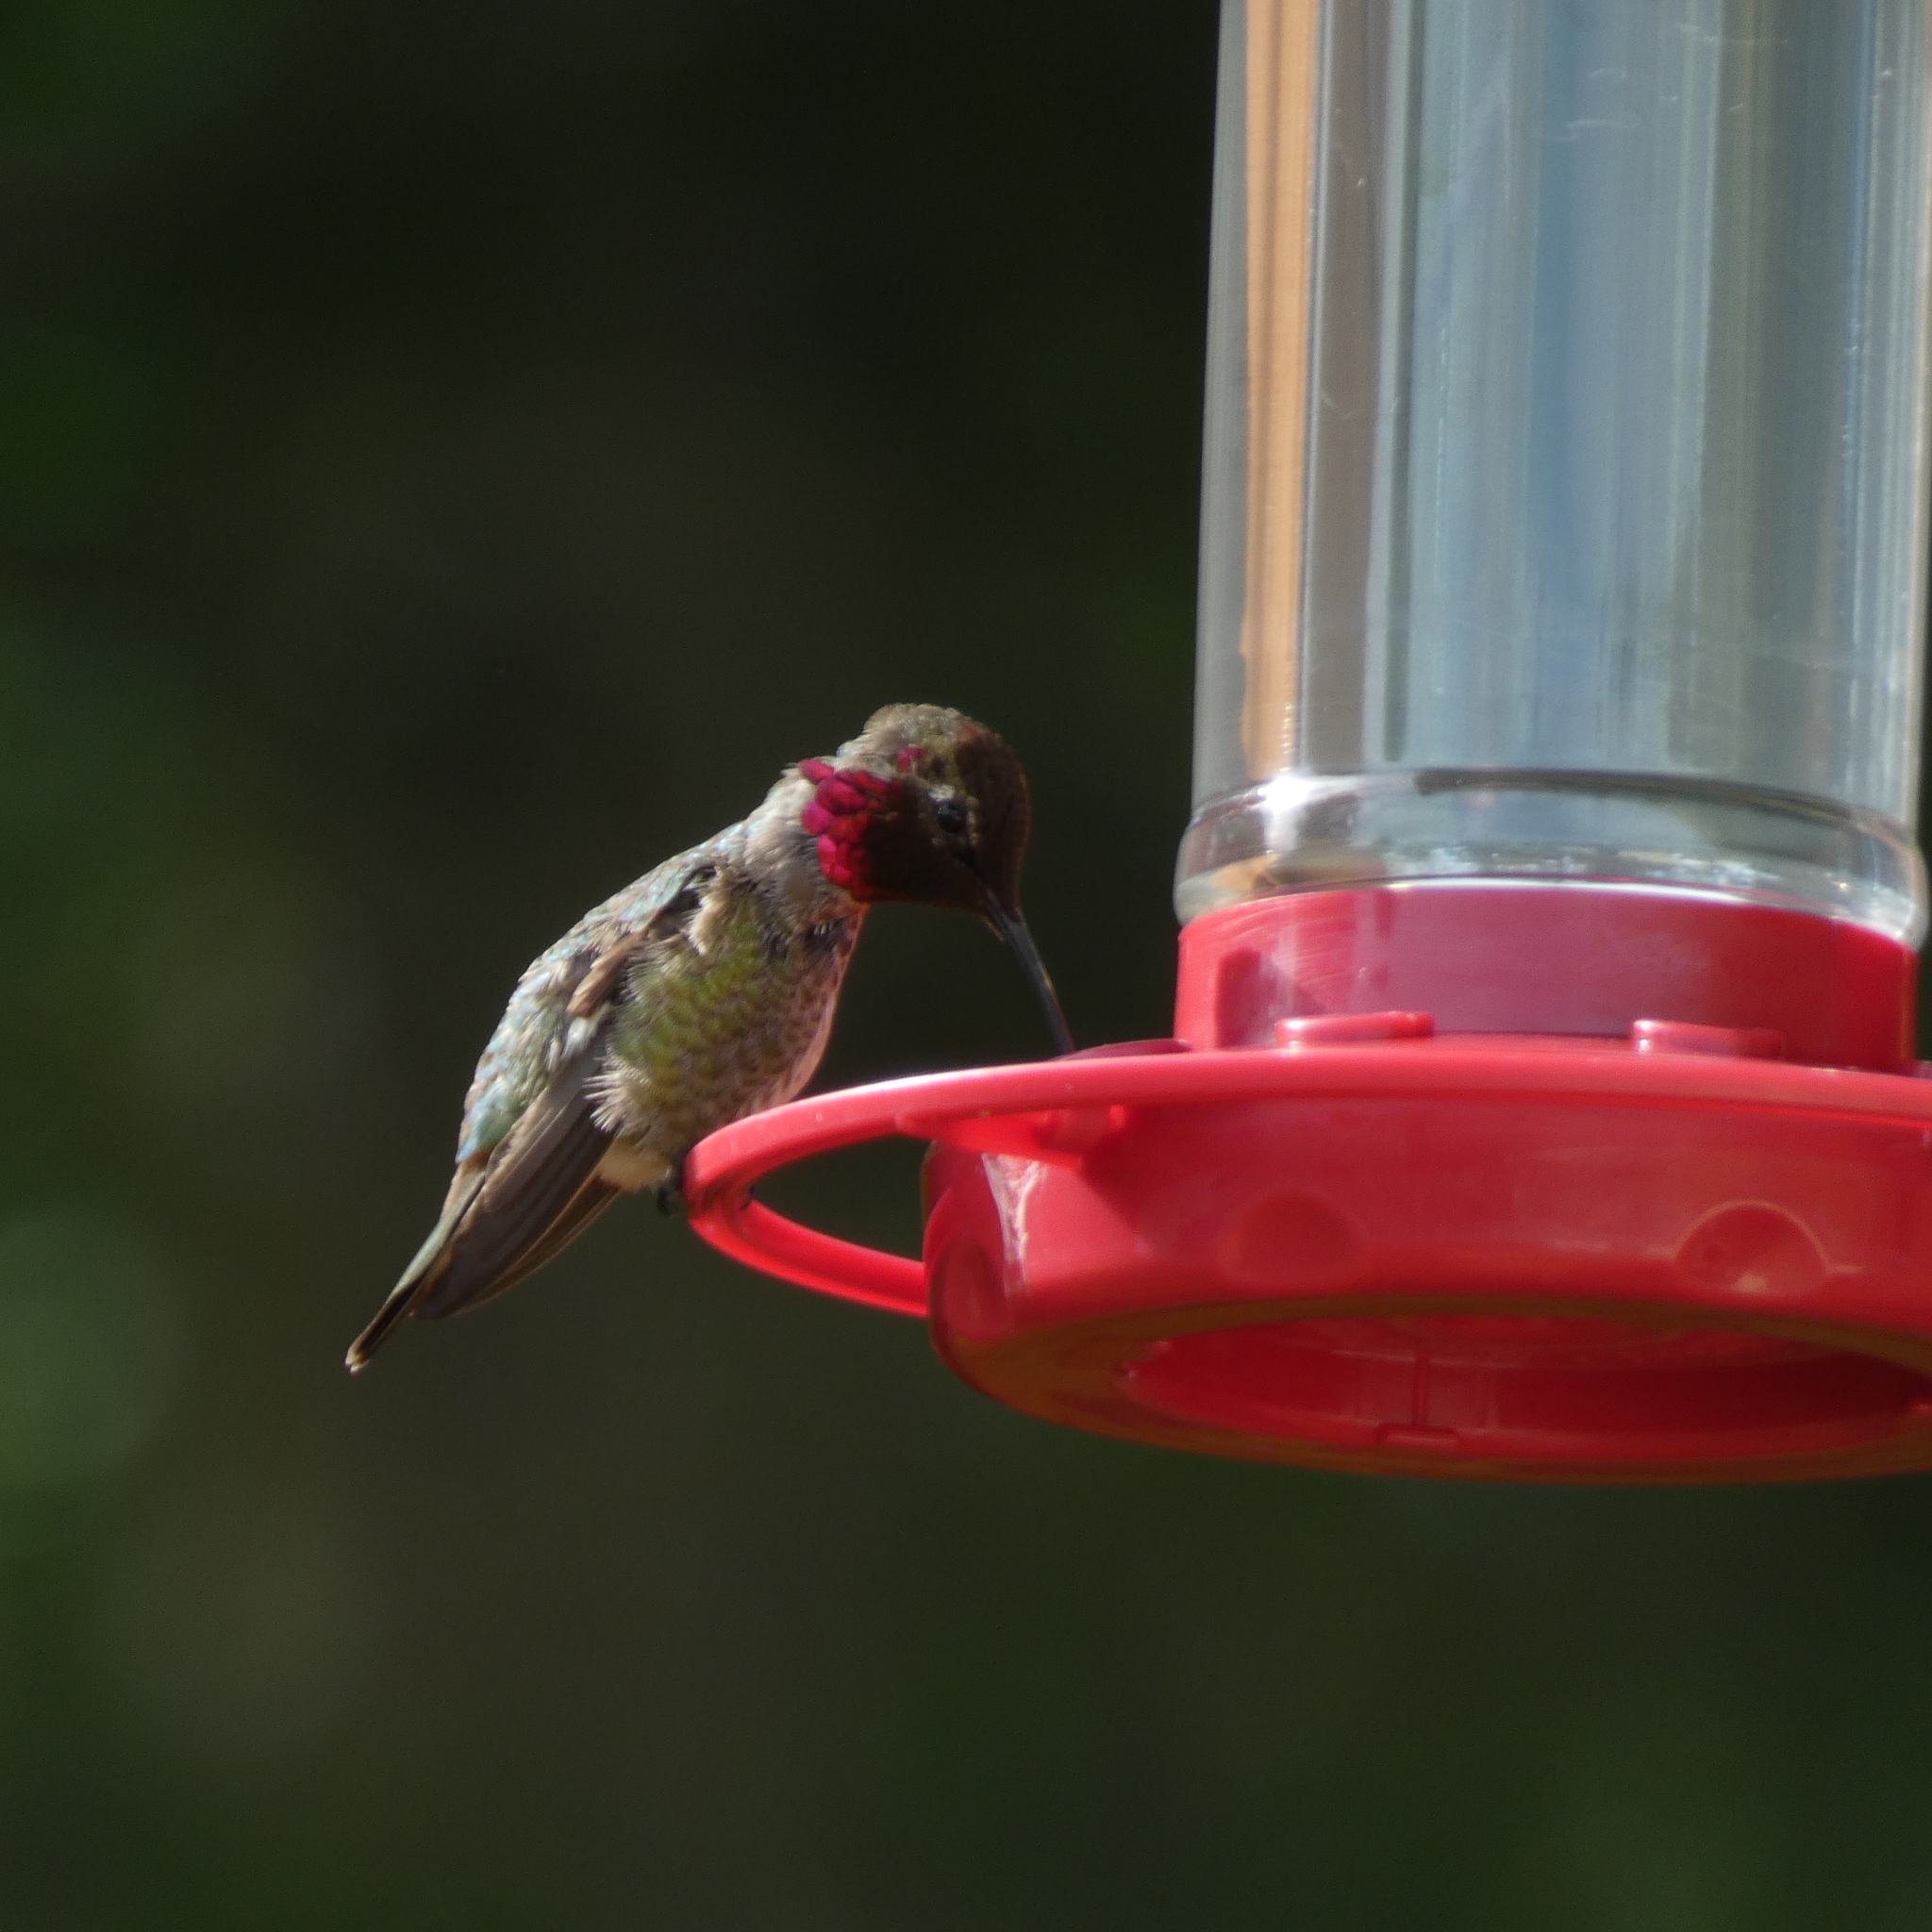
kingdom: Animalia
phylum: Chordata
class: Aves
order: Apodiformes
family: Trochilidae
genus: Calypte
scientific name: Calypte anna
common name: Anna's hummingbird
